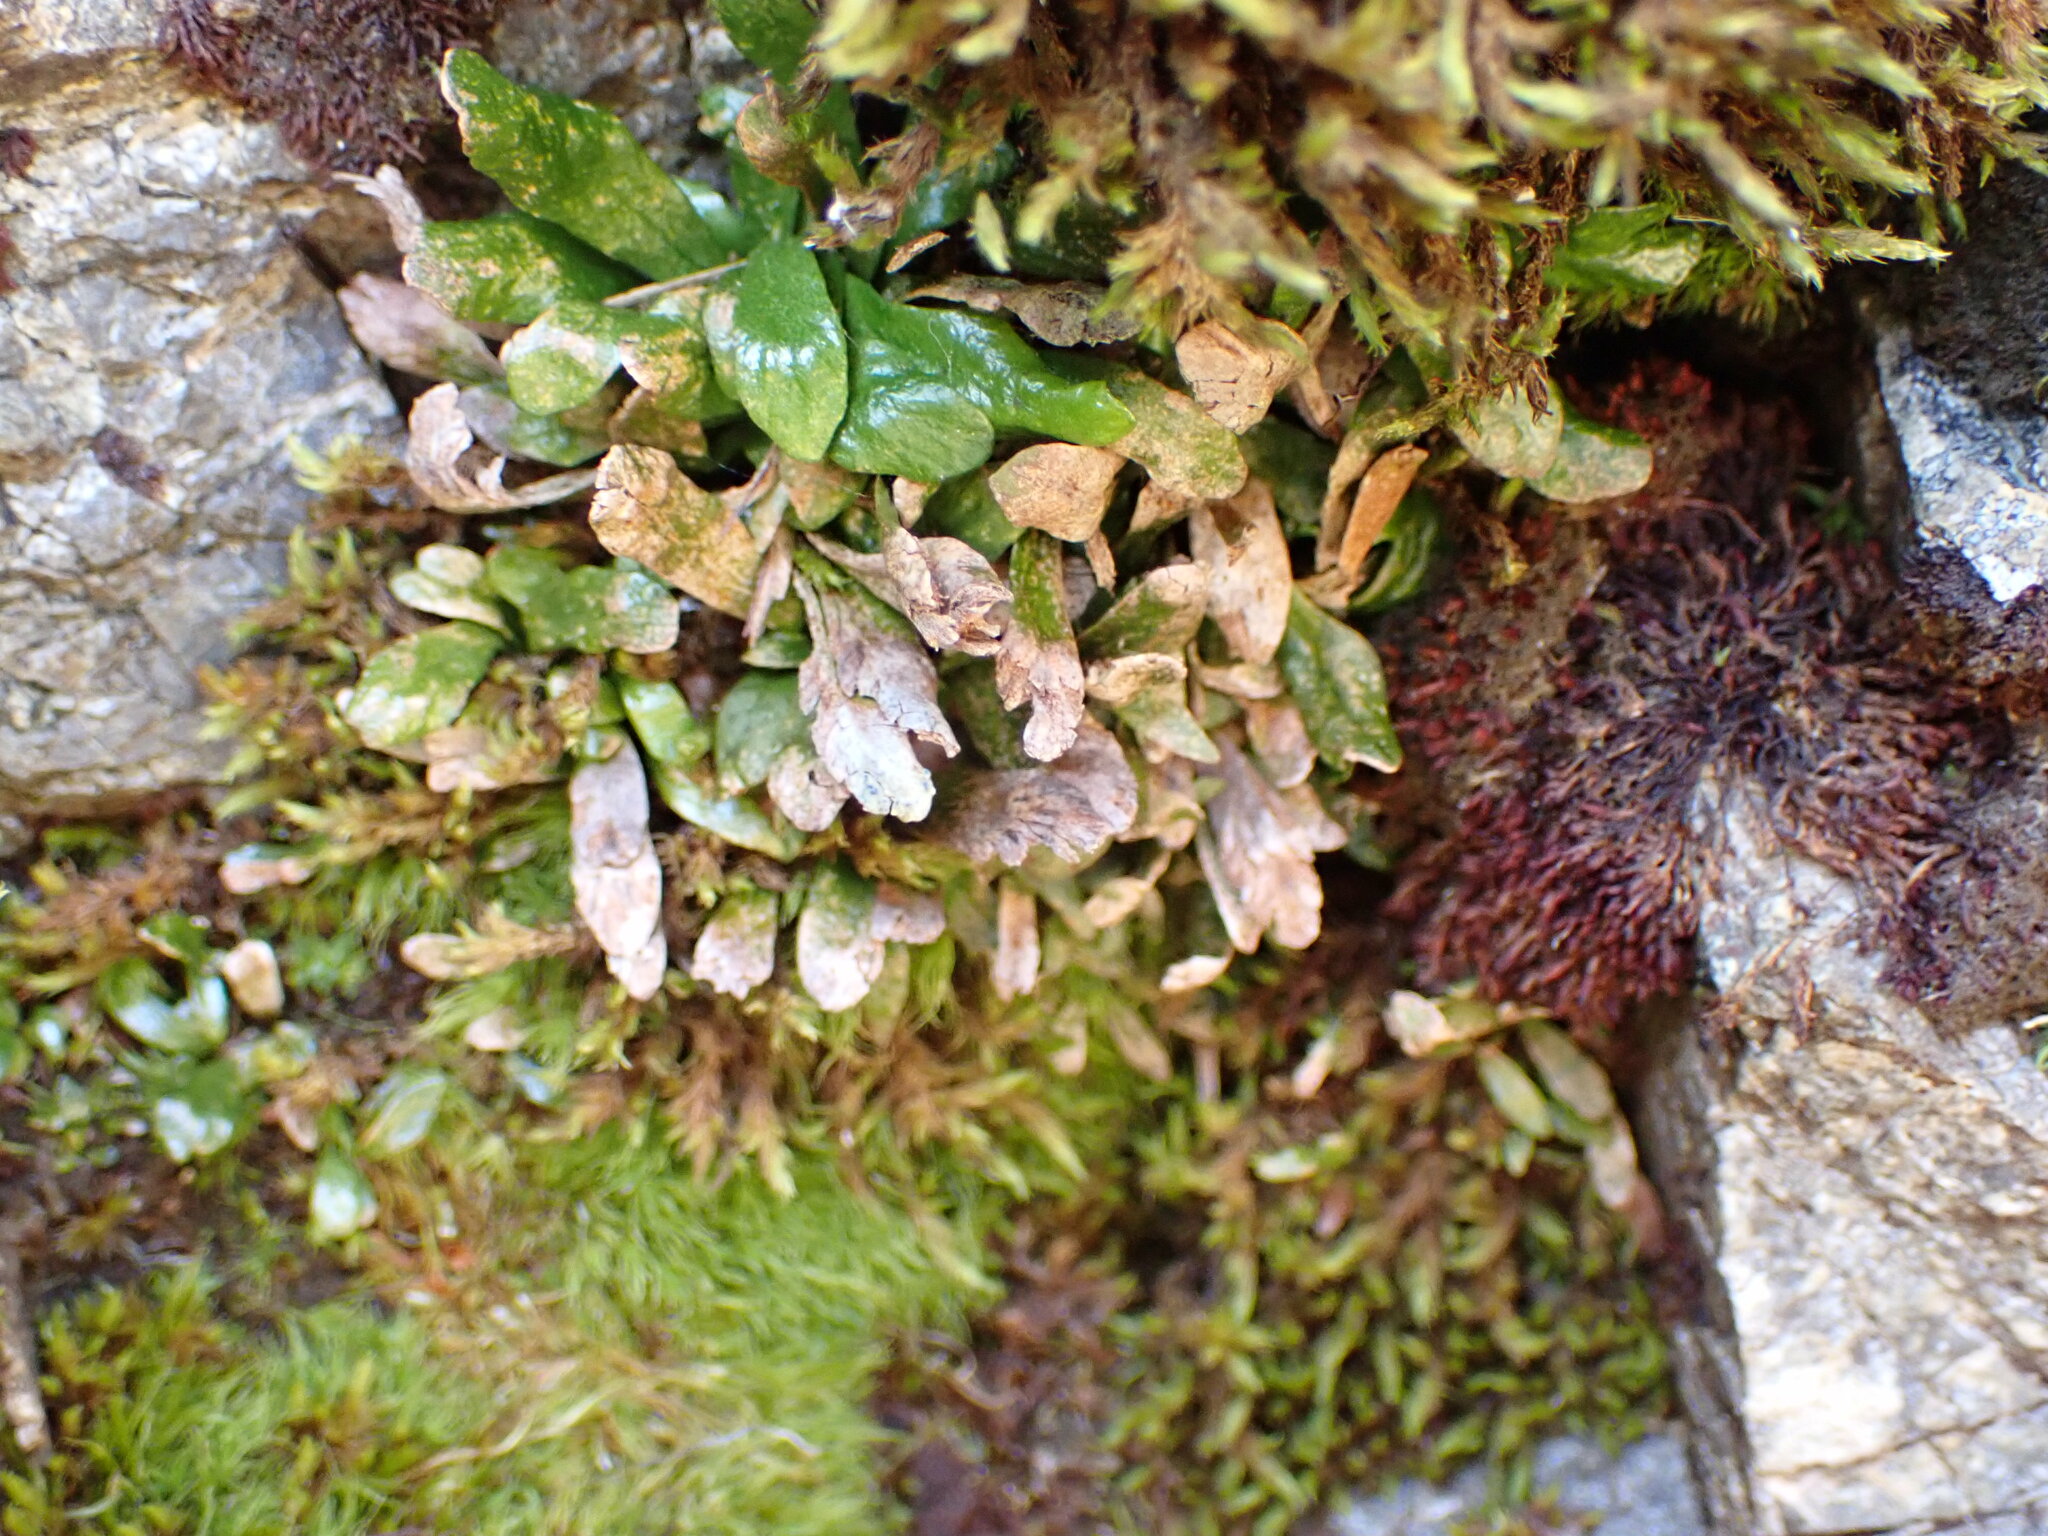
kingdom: Plantae
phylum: Tracheophyta
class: Polypodiopsida
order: Polypodiales
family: Polypodiaceae
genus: Notogrammitis
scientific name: Notogrammitis crassior
